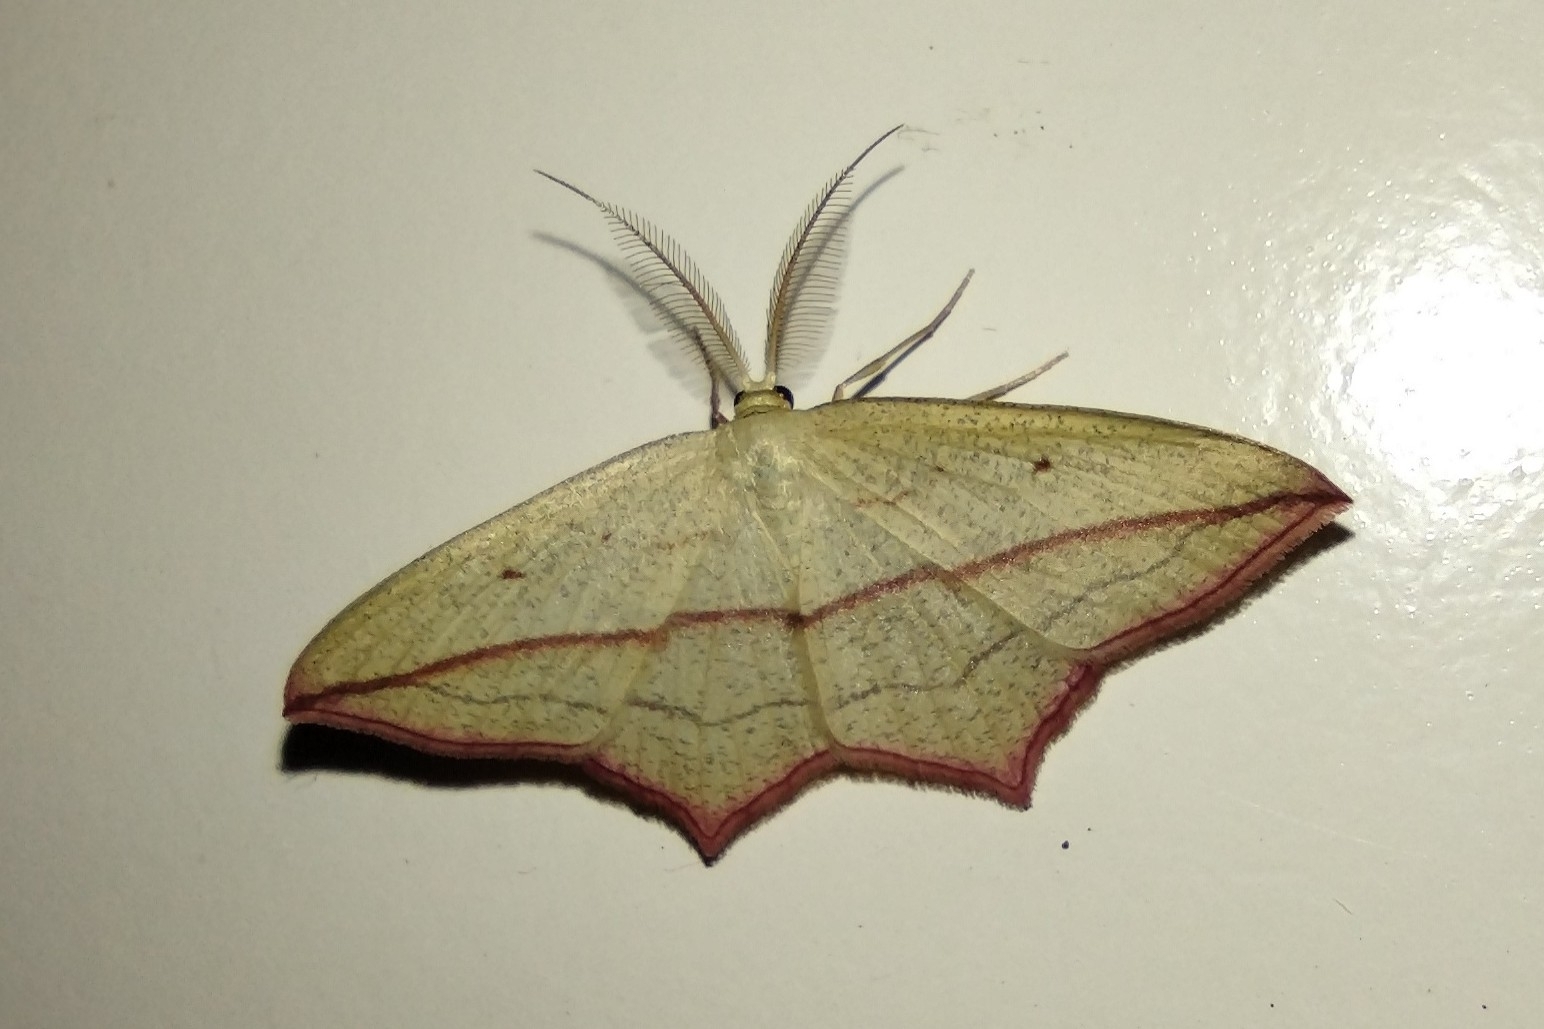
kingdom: Animalia
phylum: Arthropoda
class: Insecta
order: Lepidoptera
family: Geometridae
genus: Timandra
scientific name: Timandra comae
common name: Blood-vein
